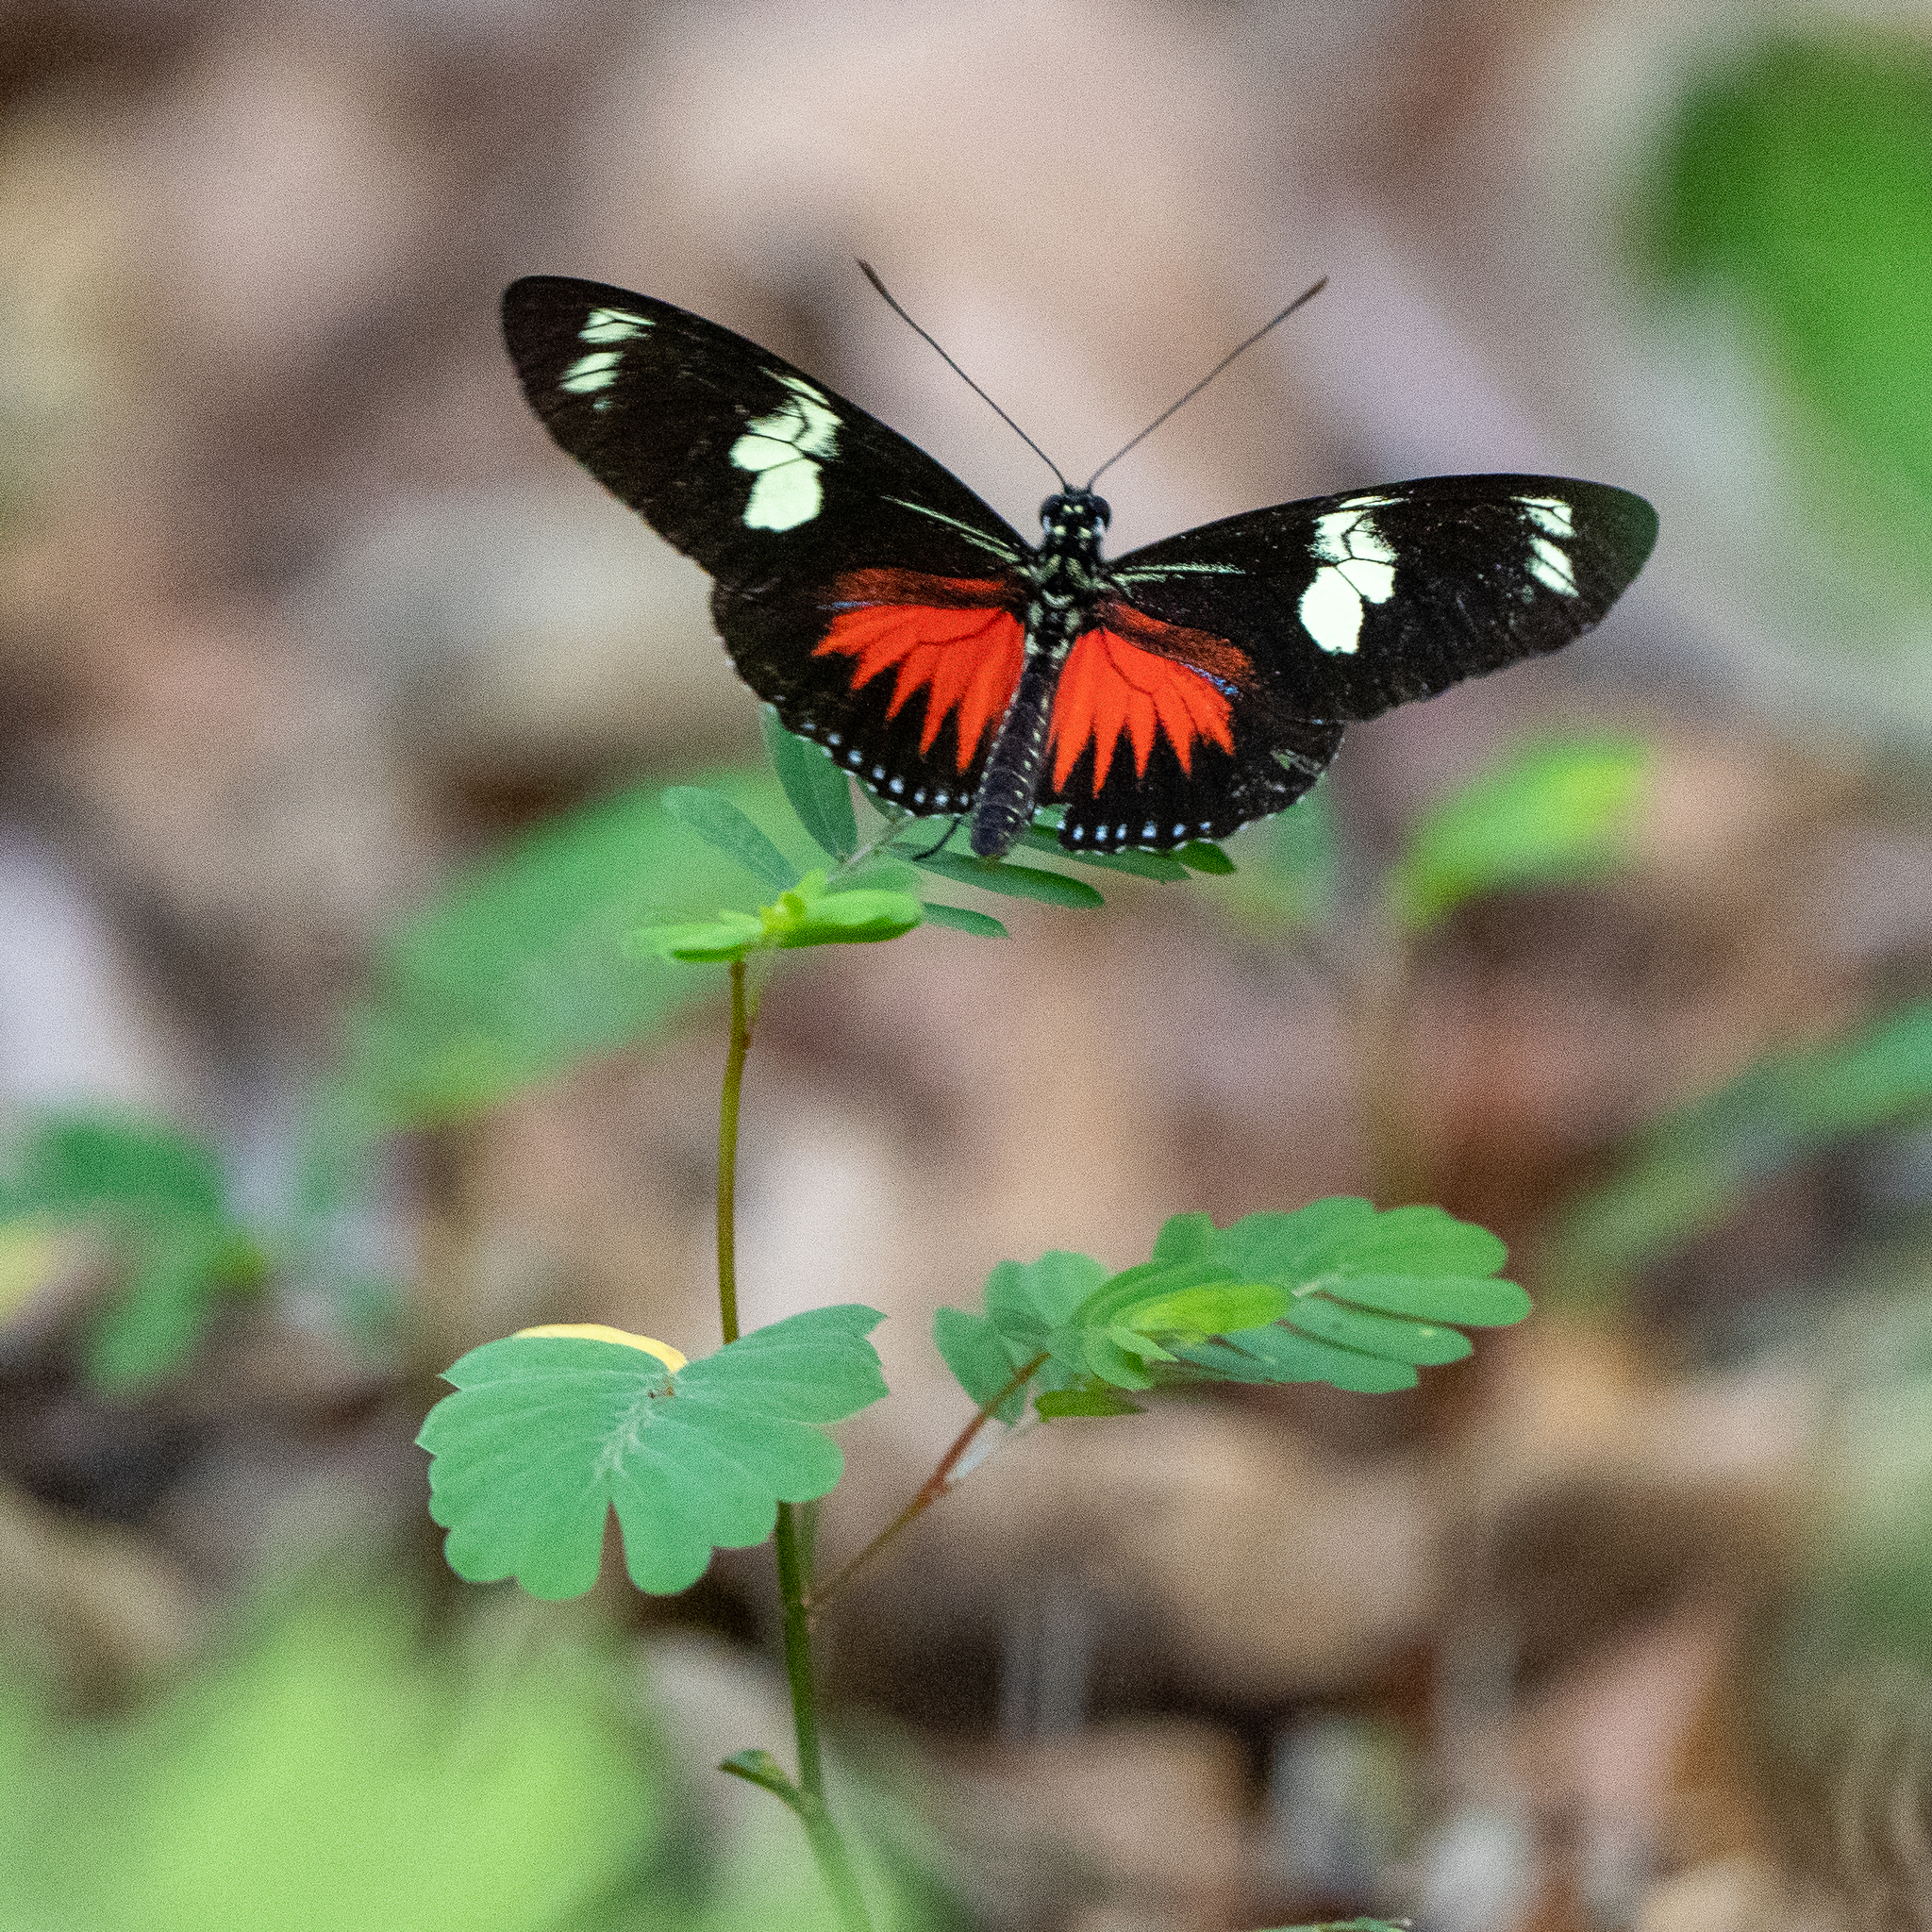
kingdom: Animalia
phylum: Arthropoda
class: Insecta
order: Lepidoptera
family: Nymphalidae
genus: Heliconius
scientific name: Heliconius doris
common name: Doris longwing
